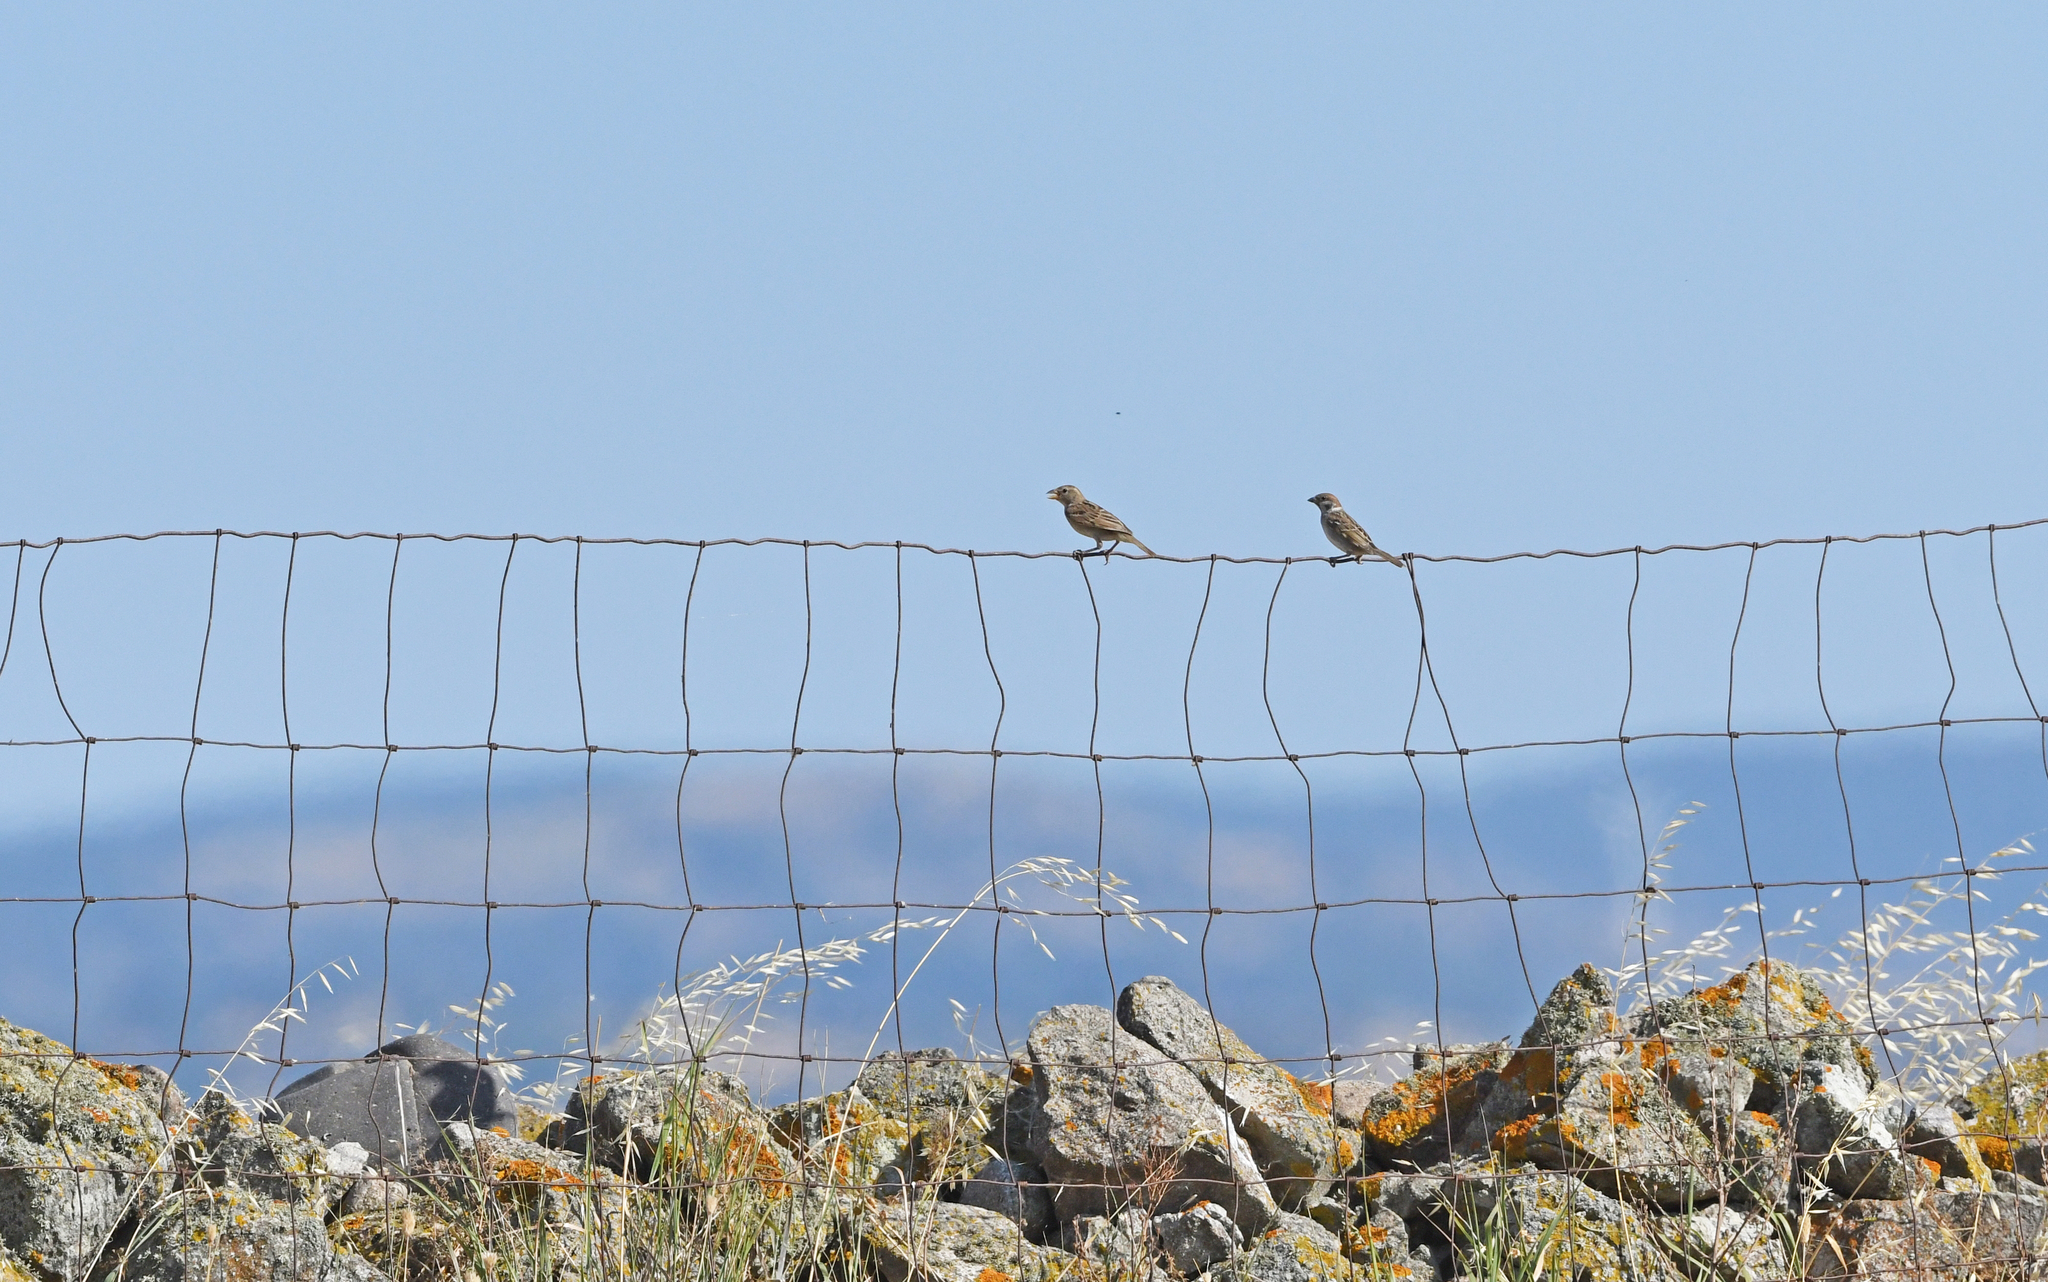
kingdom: Animalia
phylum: Chordata
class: Aves
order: Passeriformes
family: Passeridae
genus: Passer
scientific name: Passer montanus
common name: Eurasian tree sparrow
